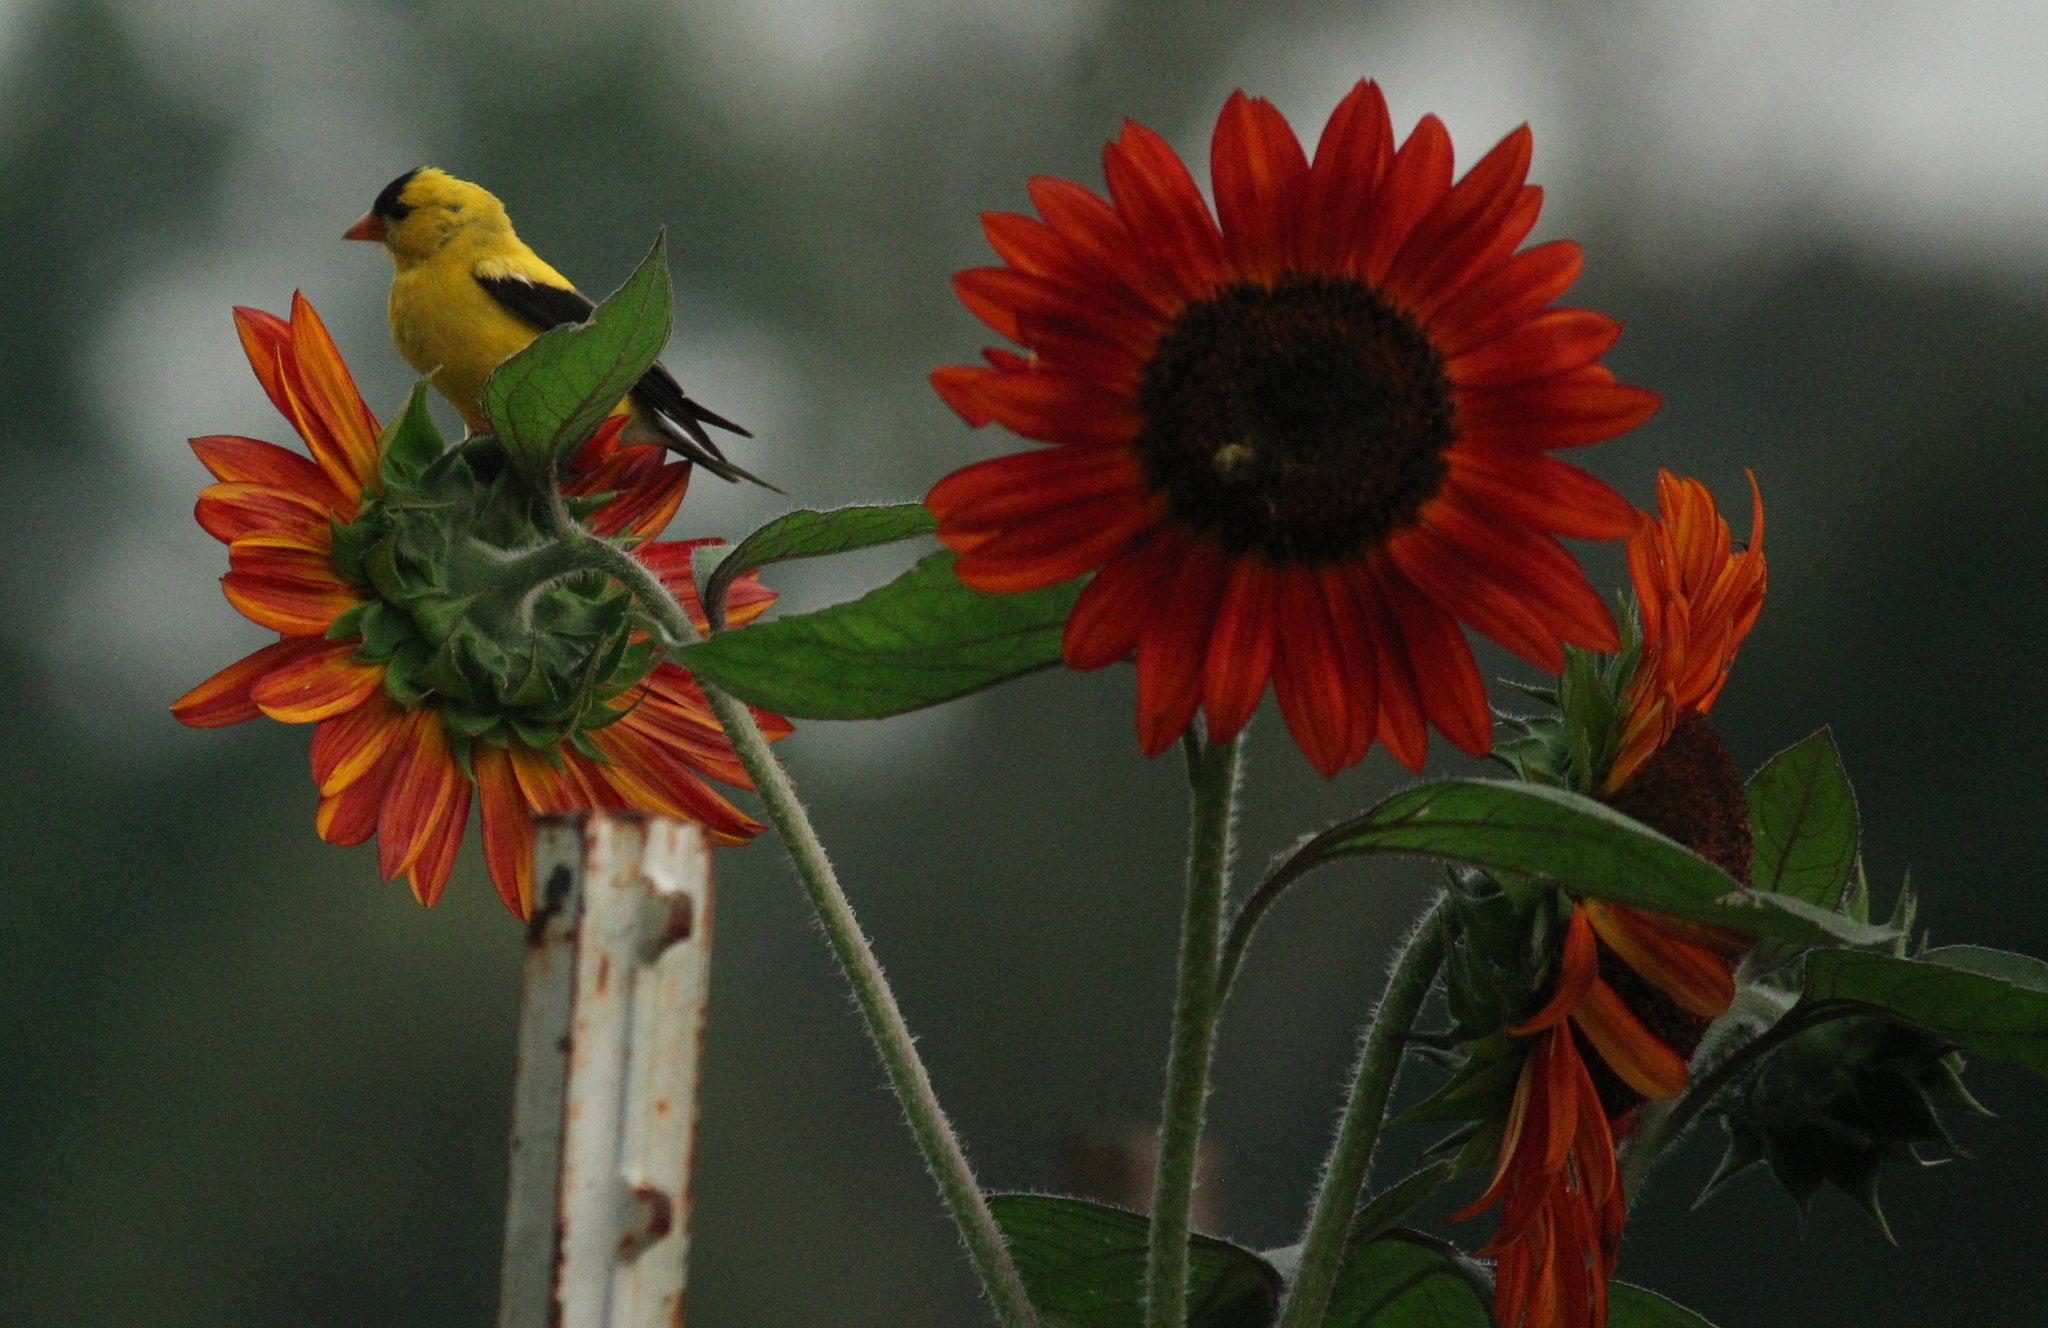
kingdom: Animalia
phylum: Chordata
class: Aves
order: Passeriformes
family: Fringillidae
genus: Spinus
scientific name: Spinus tristis
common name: American goldfinch
